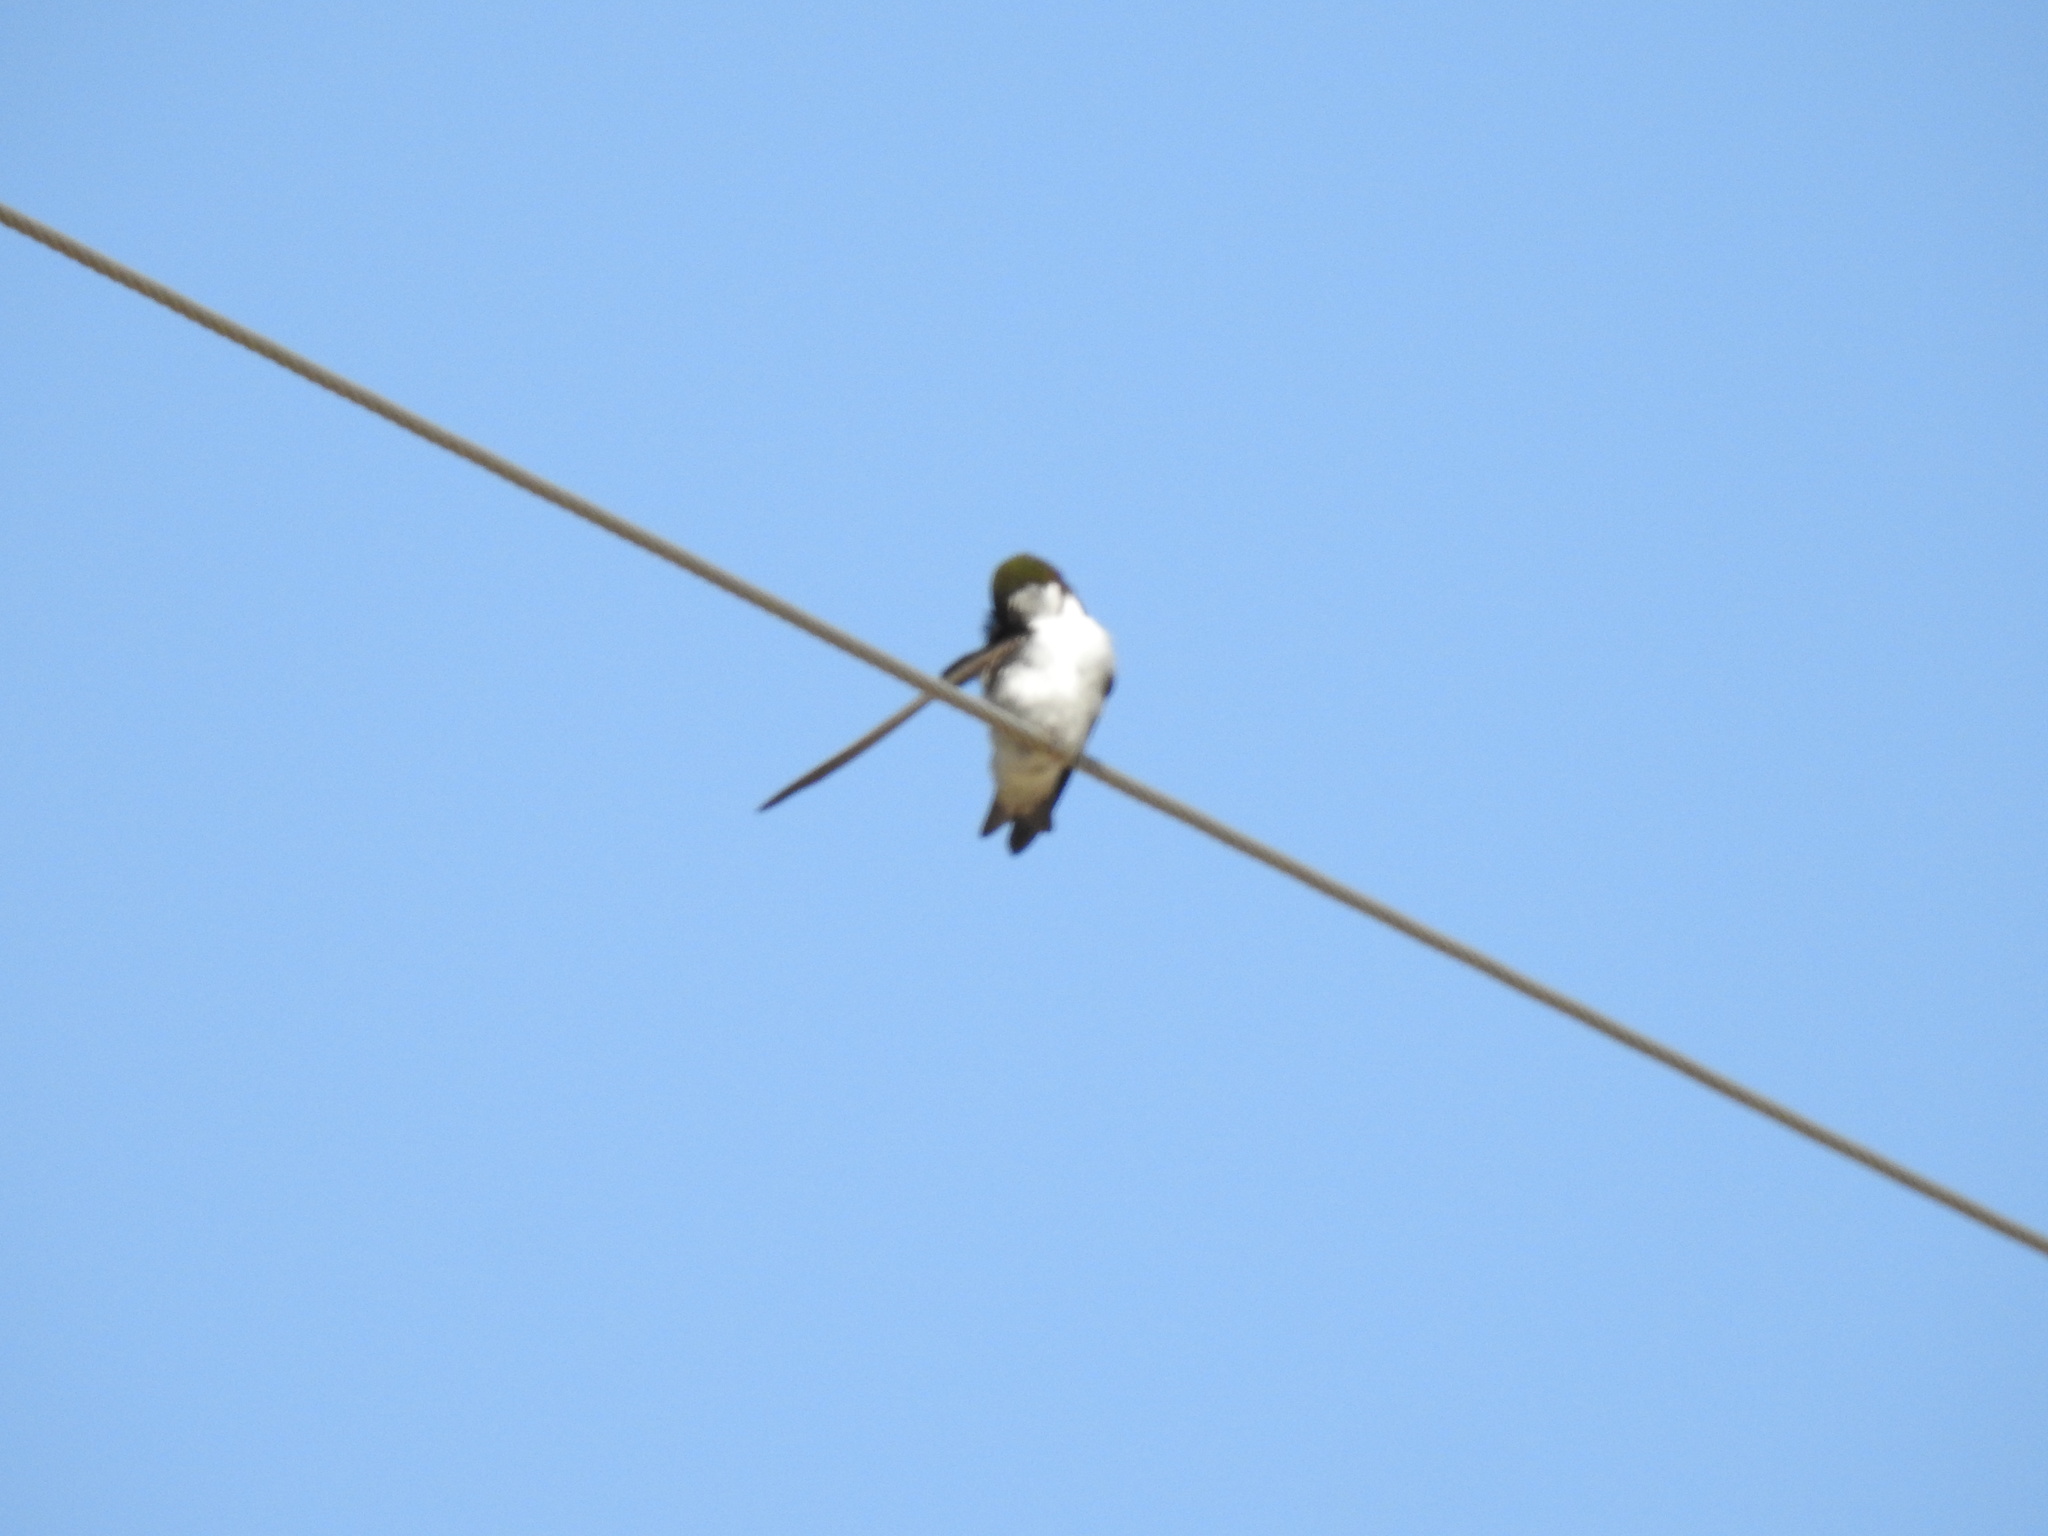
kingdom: Animalia
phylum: Chordata
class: Aves
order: Passeriformes
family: Hirundinidae
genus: Tachycineta
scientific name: Tachycineta thalassina
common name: Violet-green swallow
